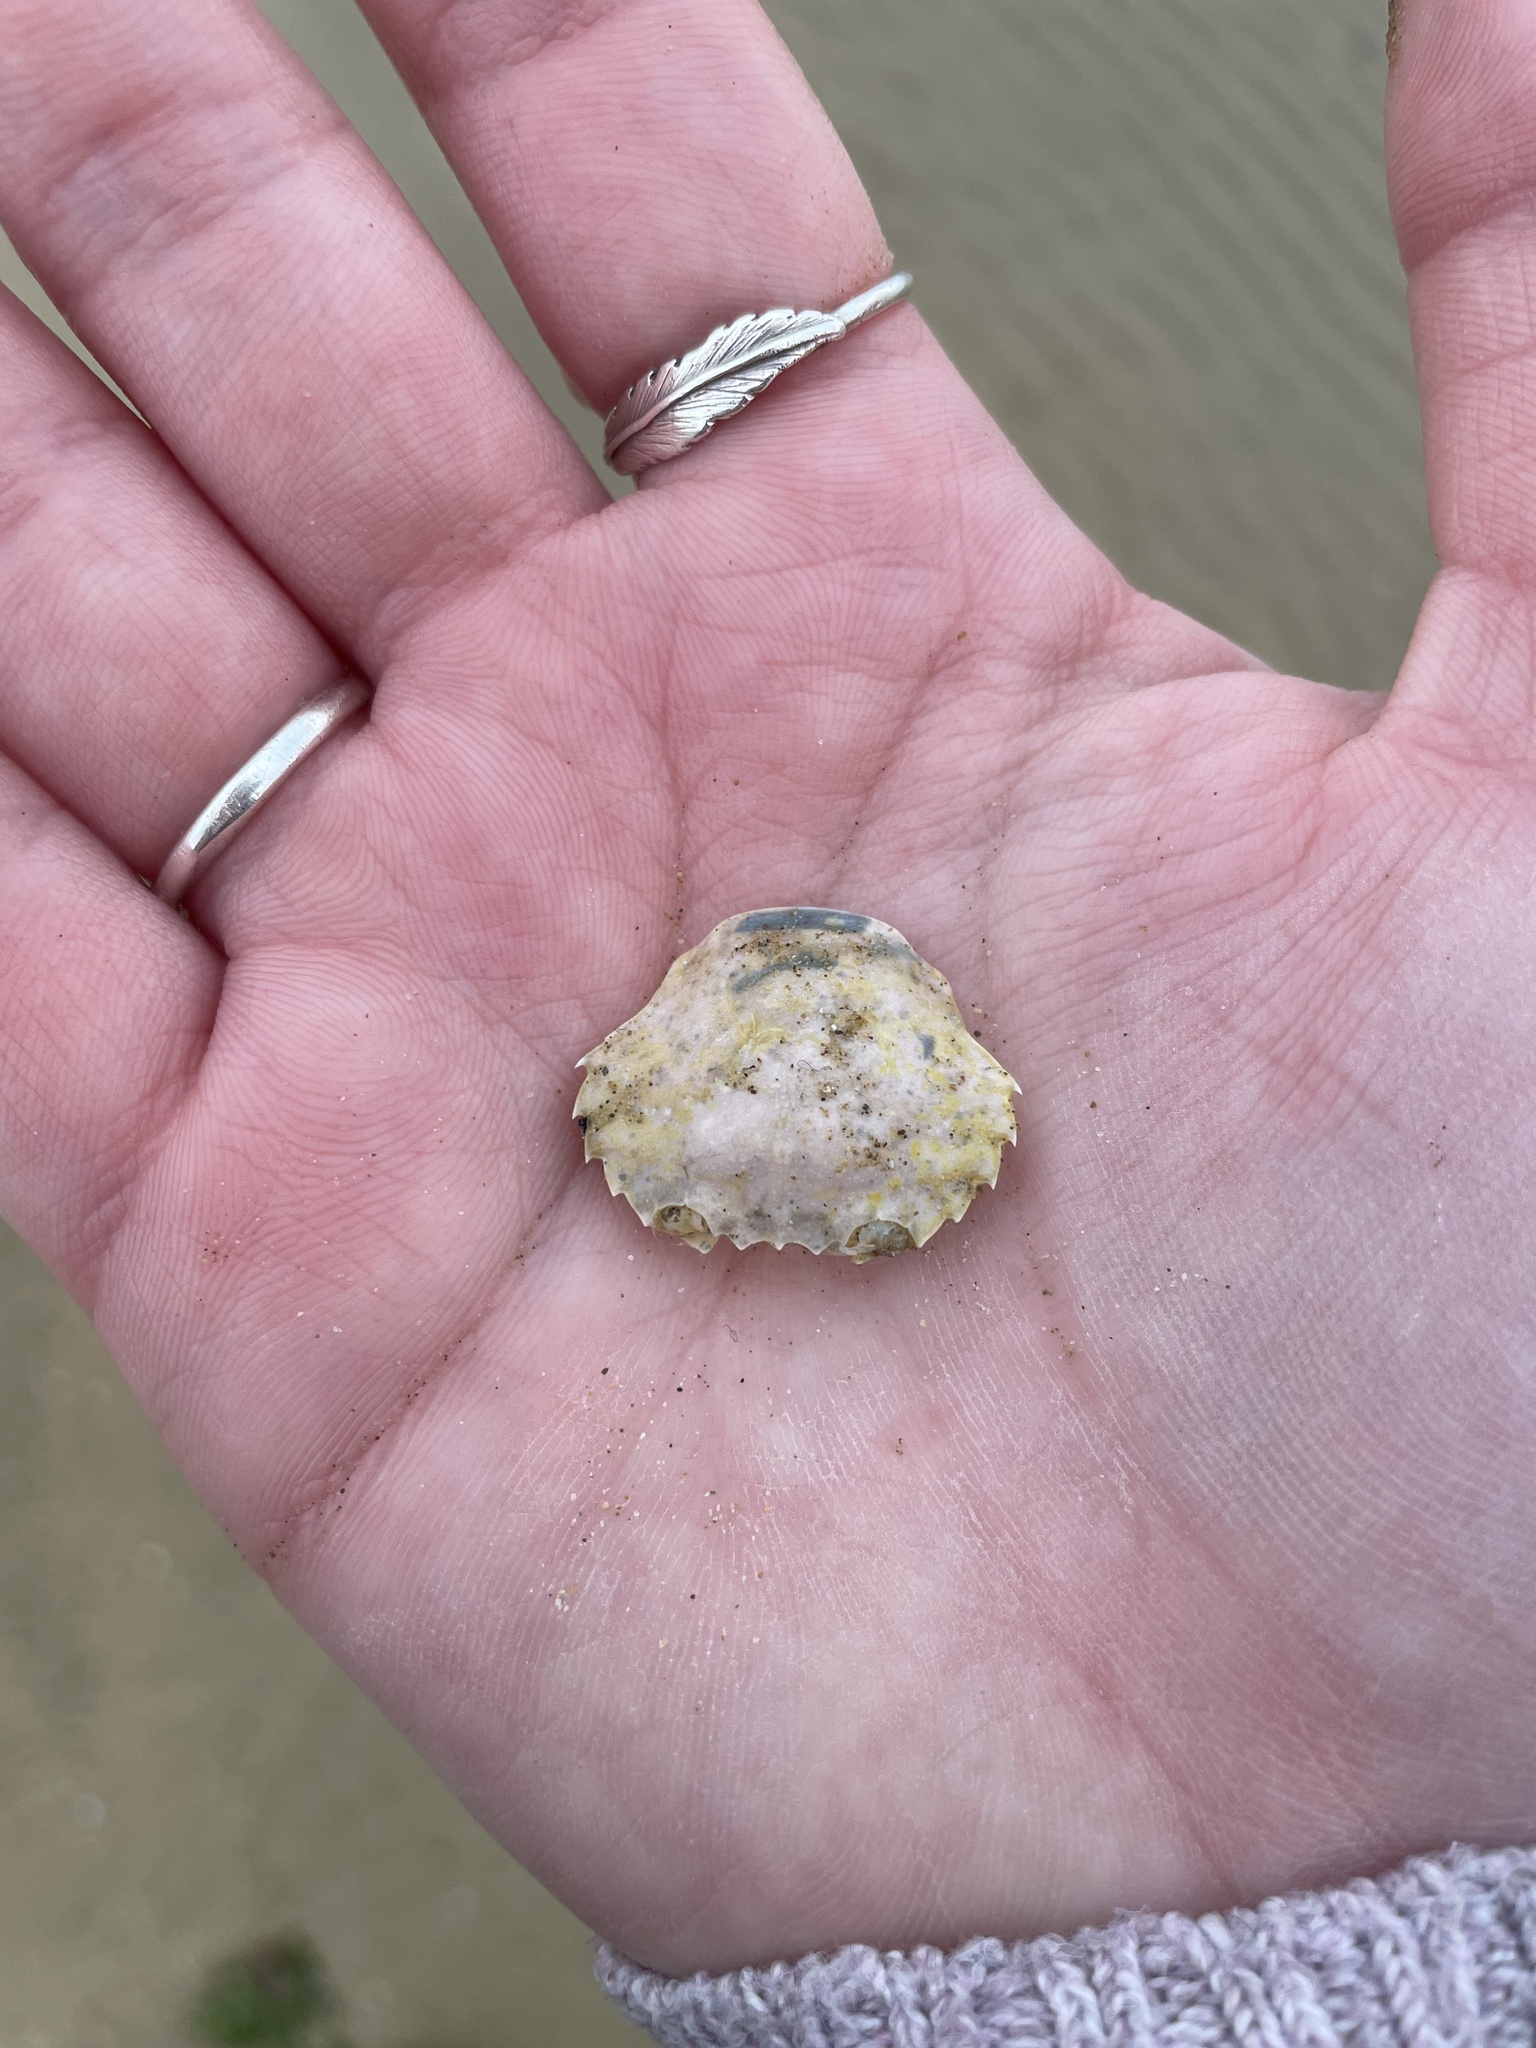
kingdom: Animalia
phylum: Arthropoda
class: Malacostraca
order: Decapoda
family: Polybiidae
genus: Liocarcinus
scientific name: Liocarcinus vernalis
